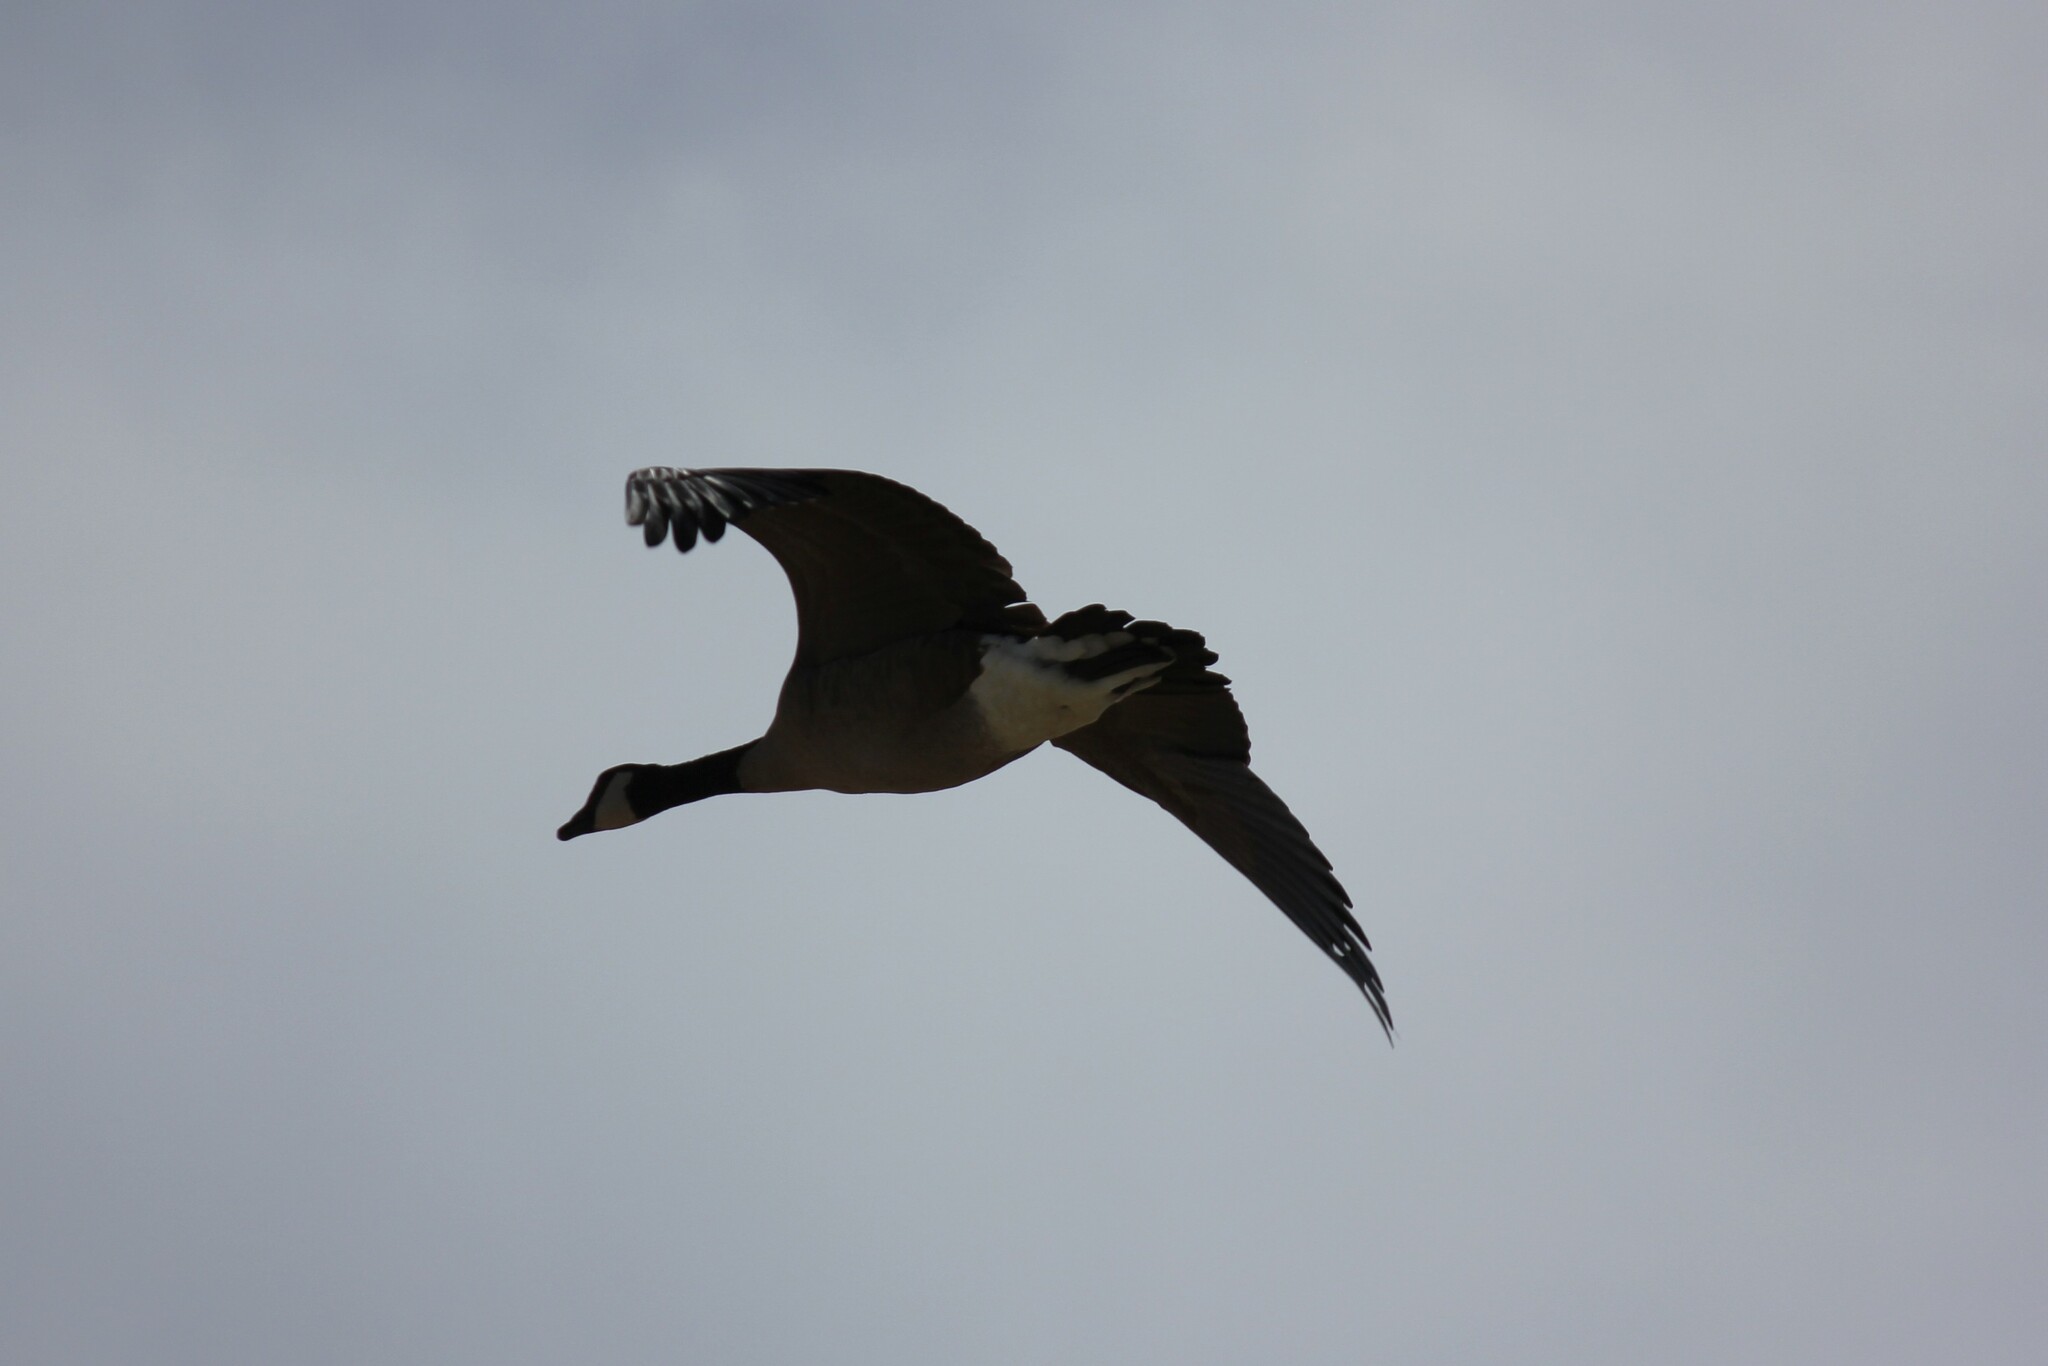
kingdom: Animalia
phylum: Chordata
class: Aves
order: Anseriformes
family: Anatidae
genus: Branta
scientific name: Branta canadensis
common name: Canada goose
